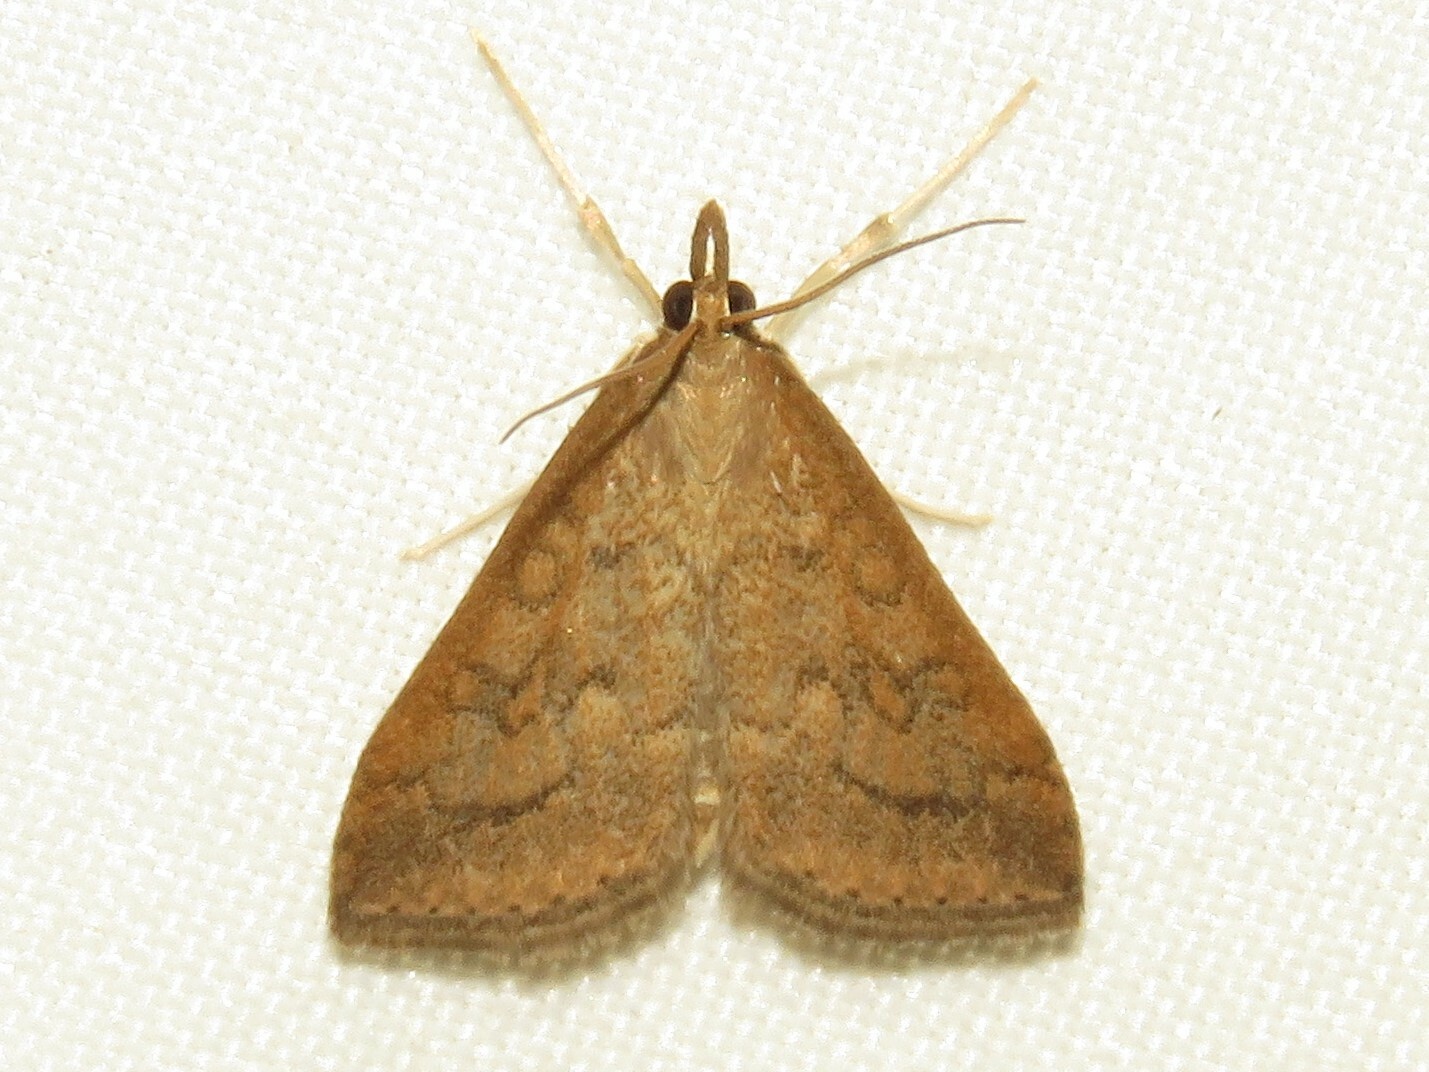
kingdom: Animalia
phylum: Arthropoda
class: Insecta
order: Lepidoptera
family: Crambidae
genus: Udea
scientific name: Udea rubigalis
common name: Celery leaftier moth
